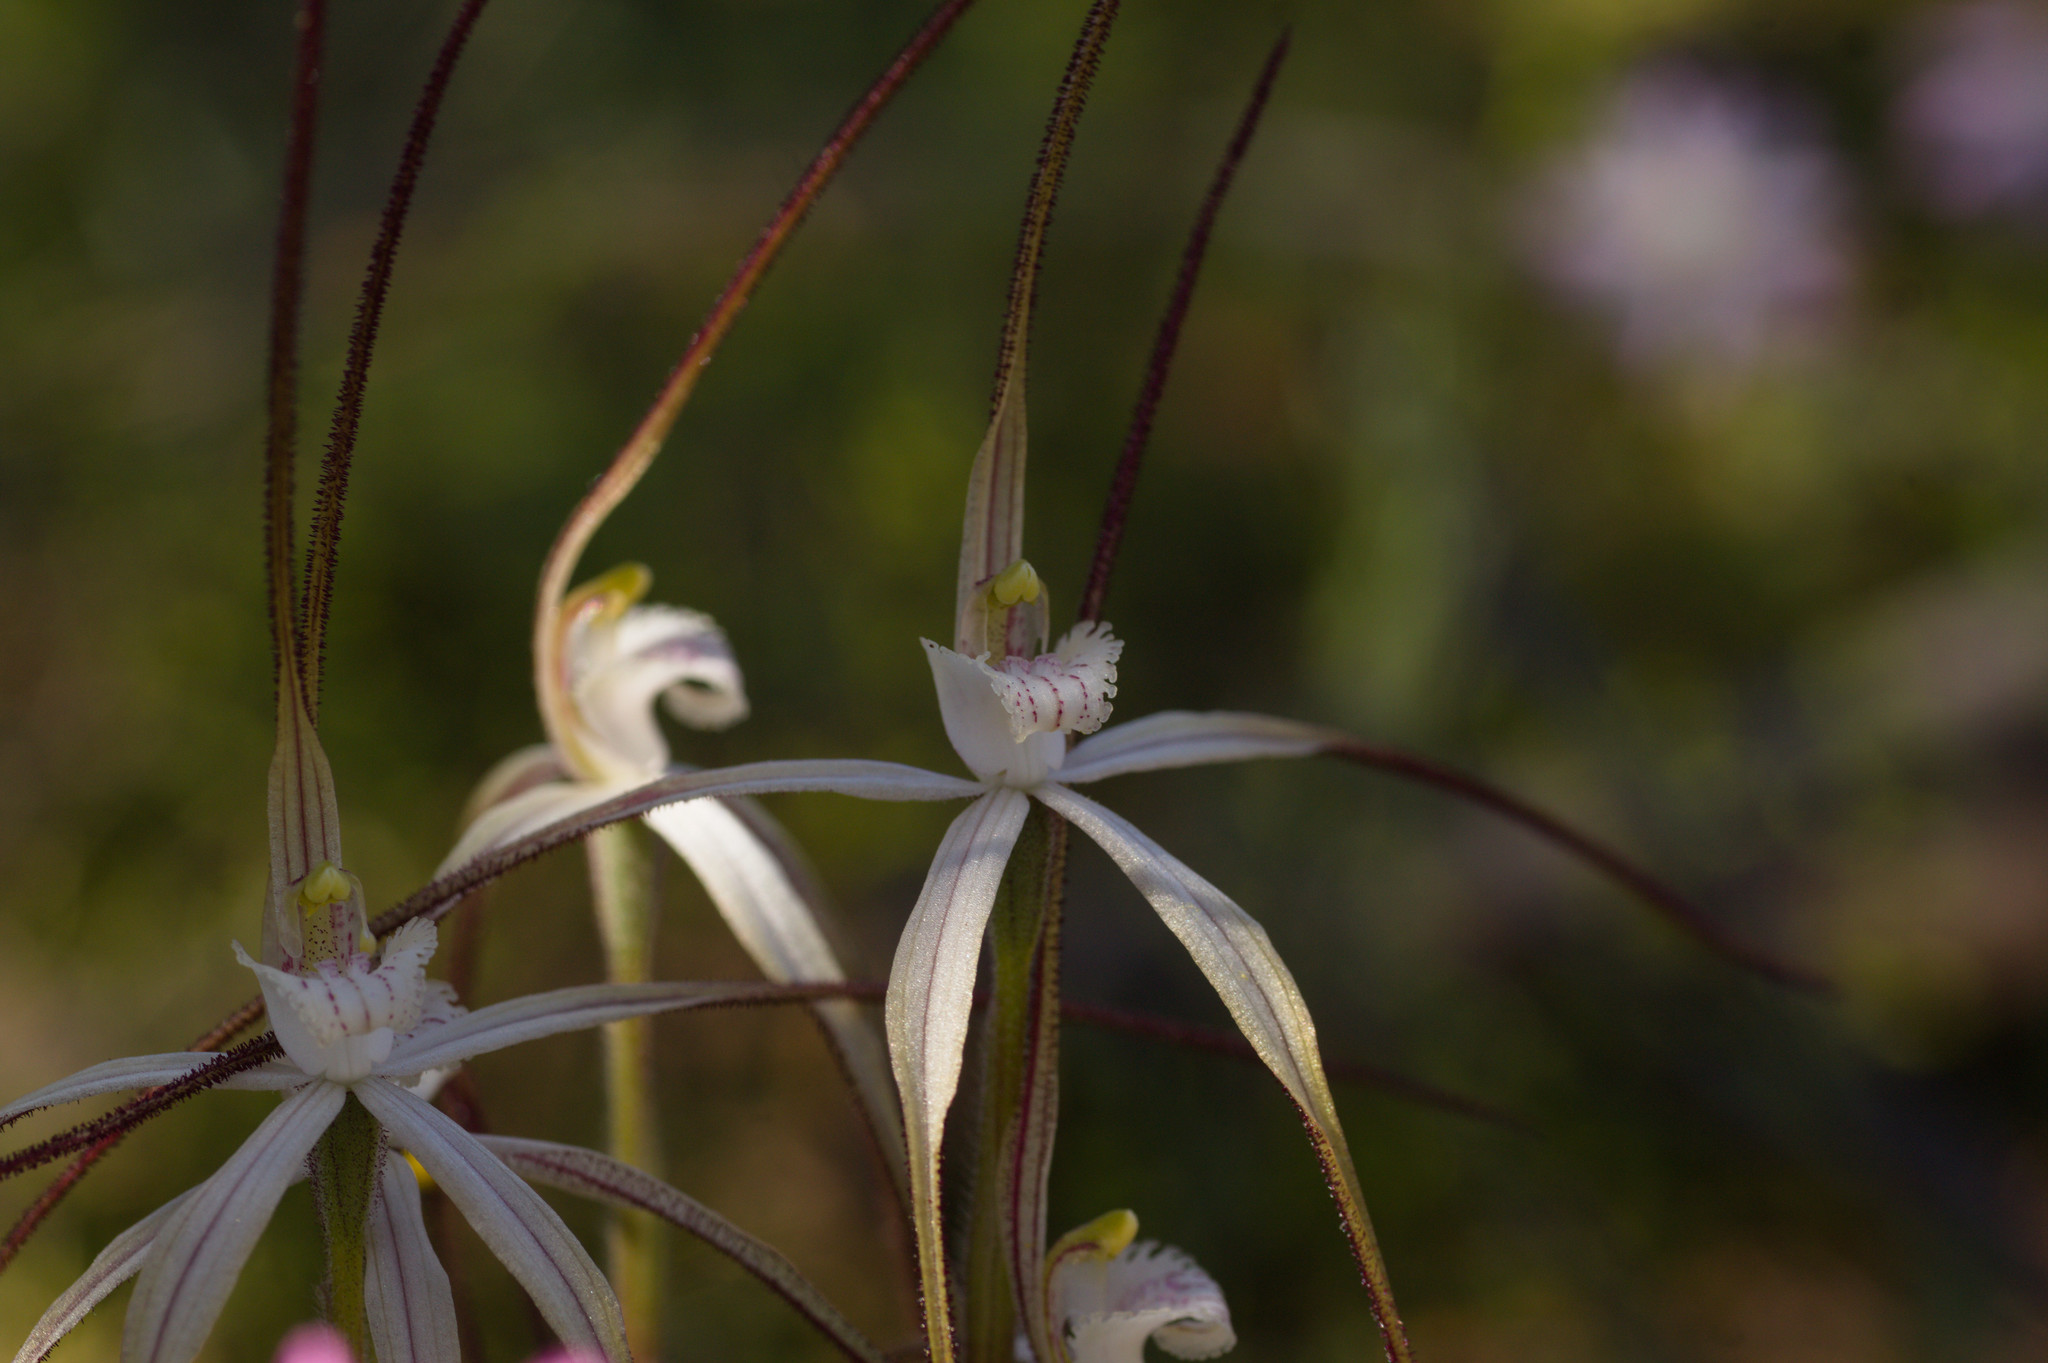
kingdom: Plantae
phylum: Tracheophyta
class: Liliopsida
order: Asparagales
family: Orchidaceae
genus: Caladenia
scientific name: Caladenia varians
